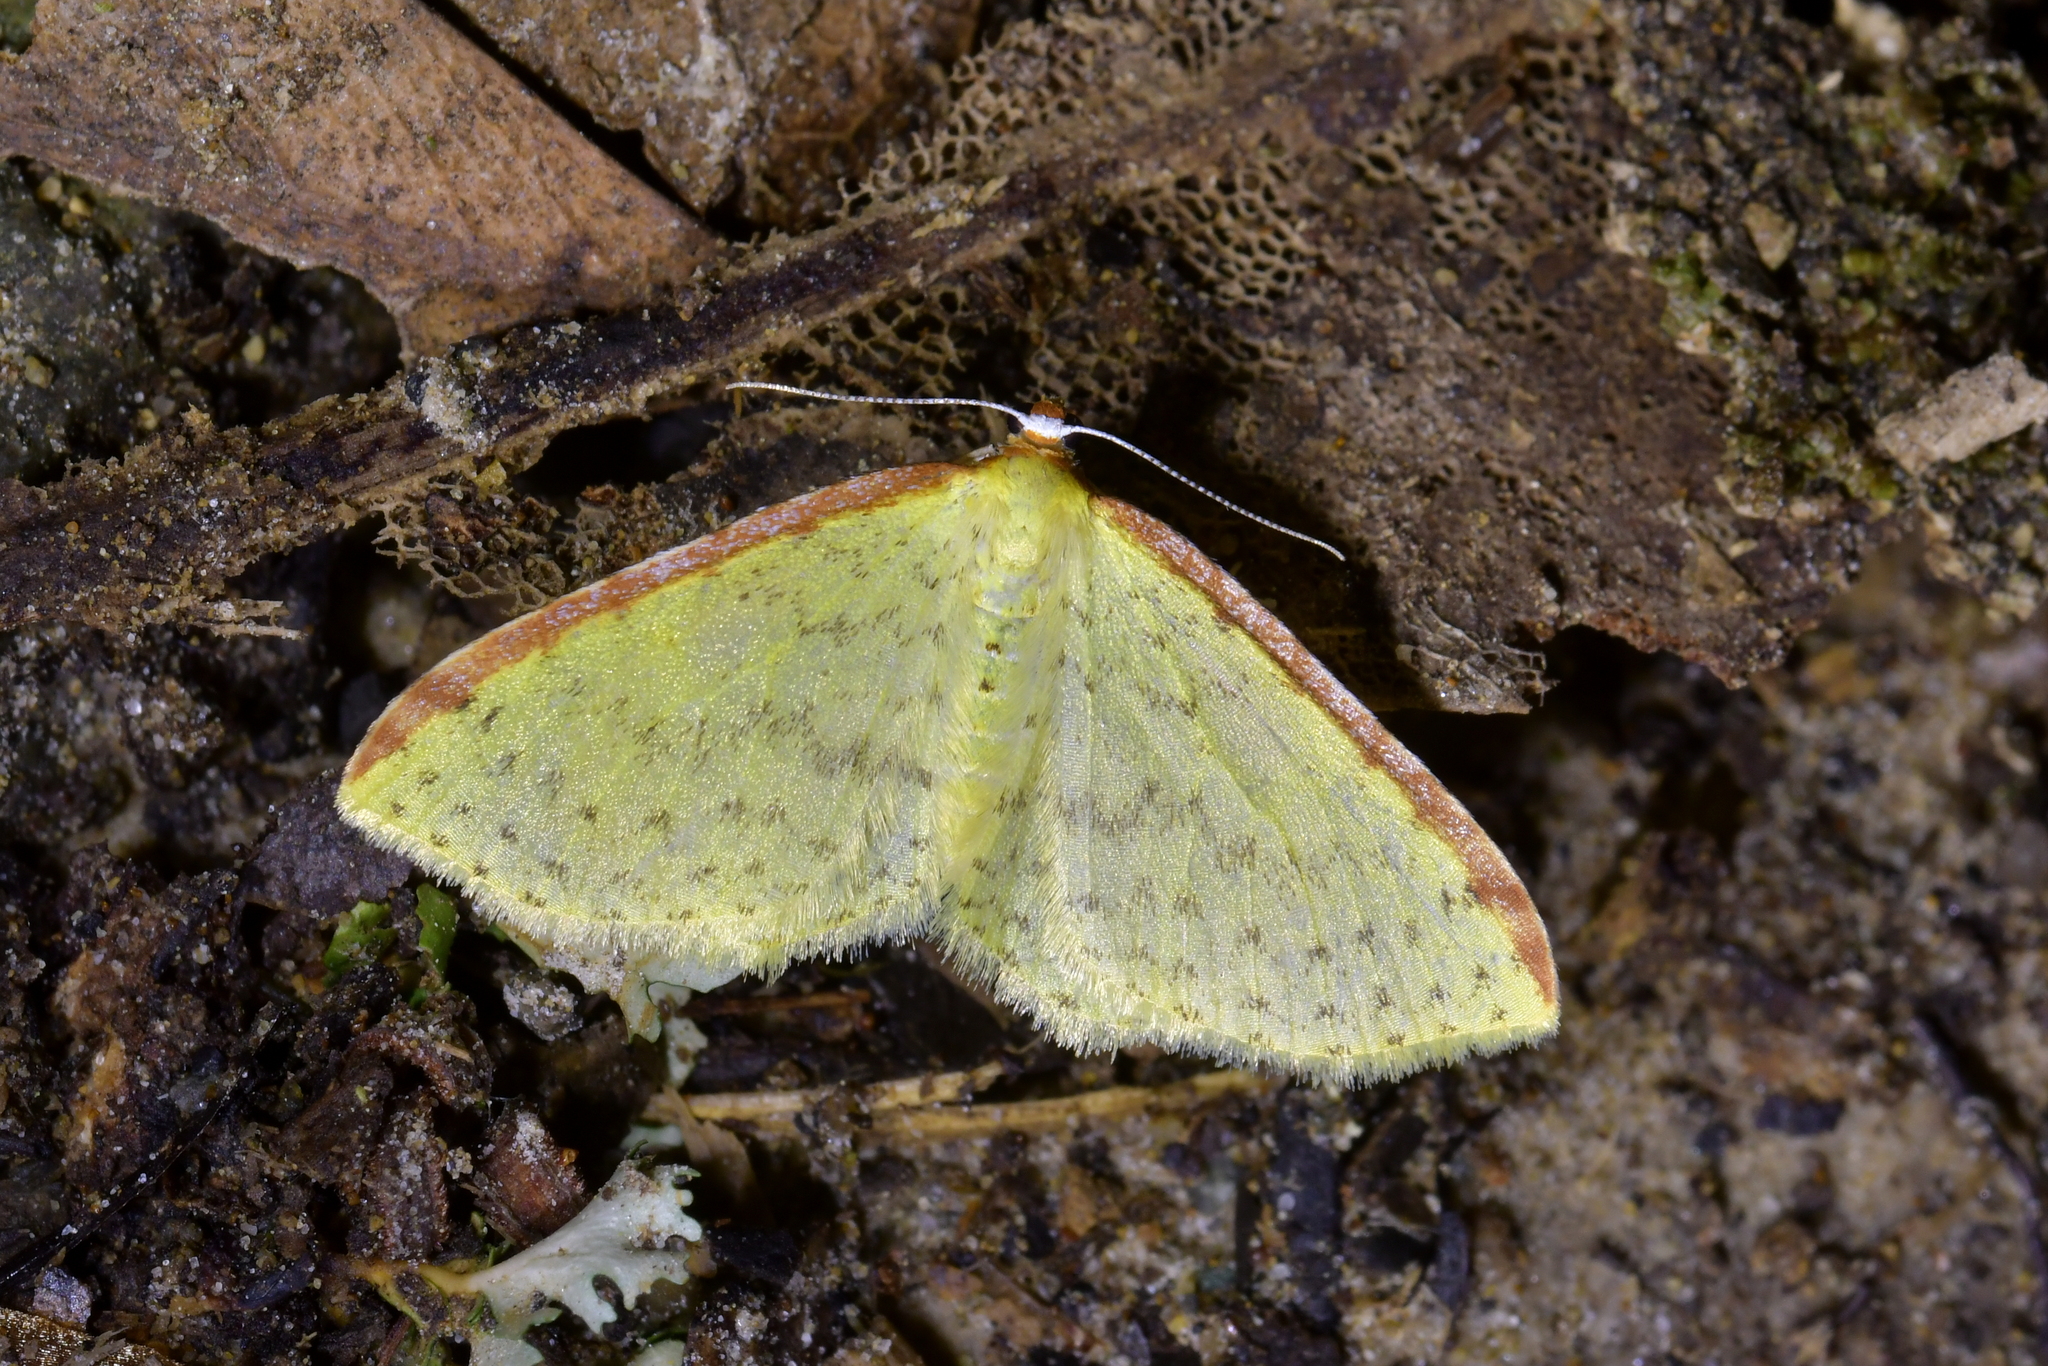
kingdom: Animalia
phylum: Arthropoda
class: Insecta
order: Lepidoptera
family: Geometridae
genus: Epiphryne
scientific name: Epiphryne undosata
